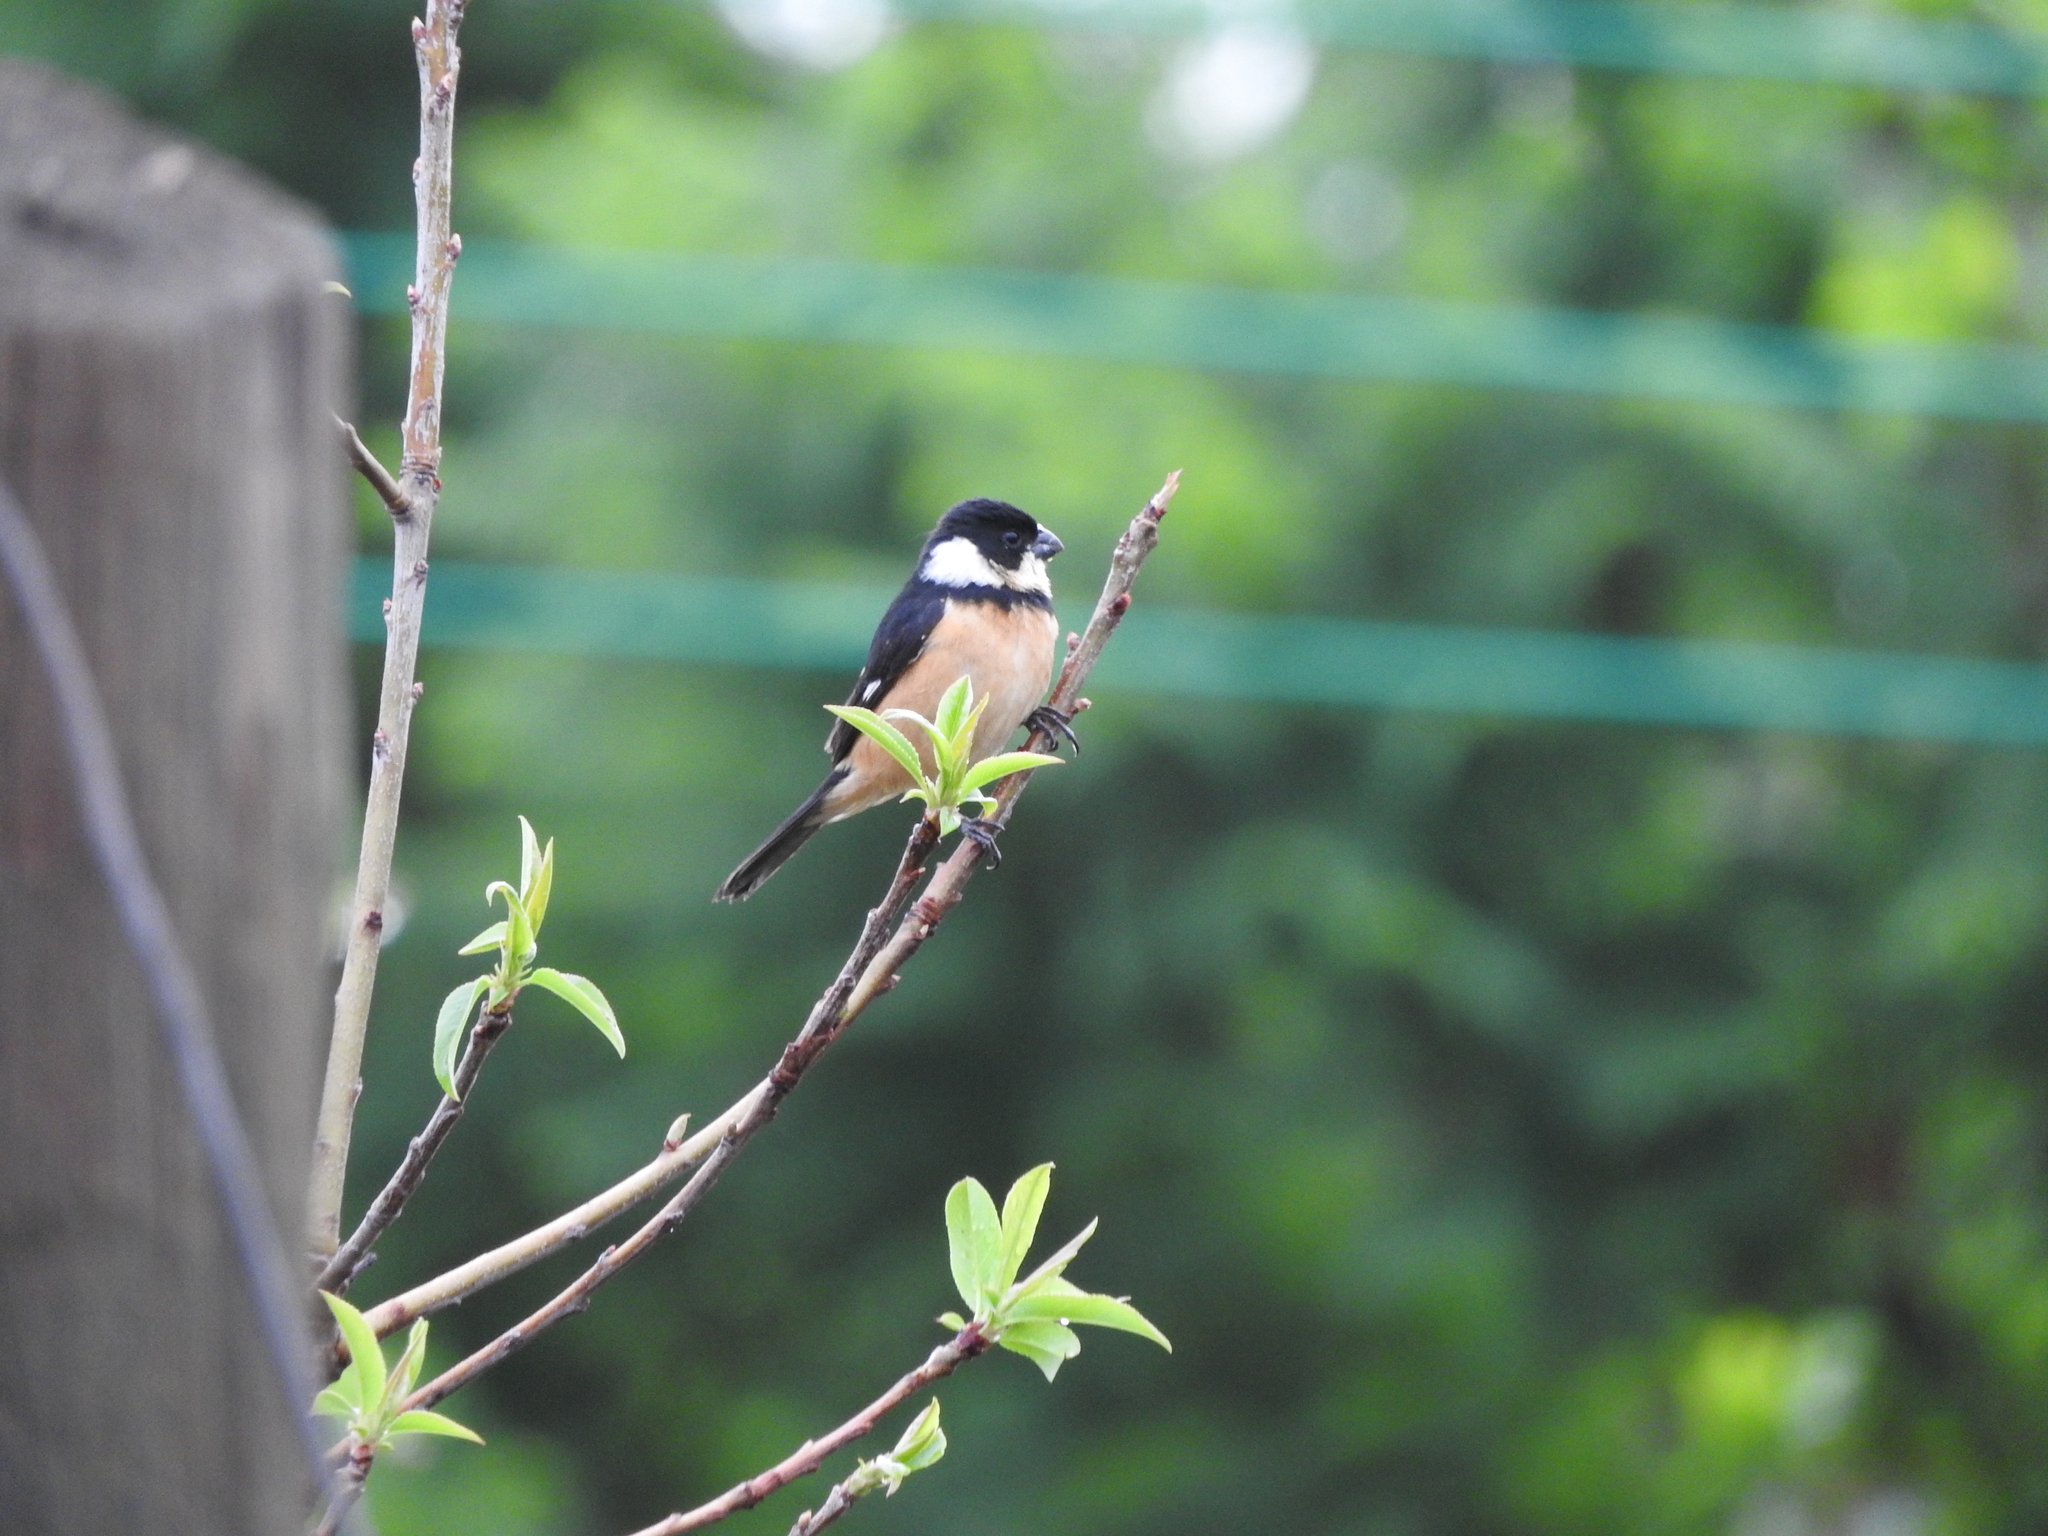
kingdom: Animalia
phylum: Chordata
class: Aves
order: Passeriformes
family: Thraupidae
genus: Sporophila
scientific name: Sporophila torqueola
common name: White-collared seedeater
